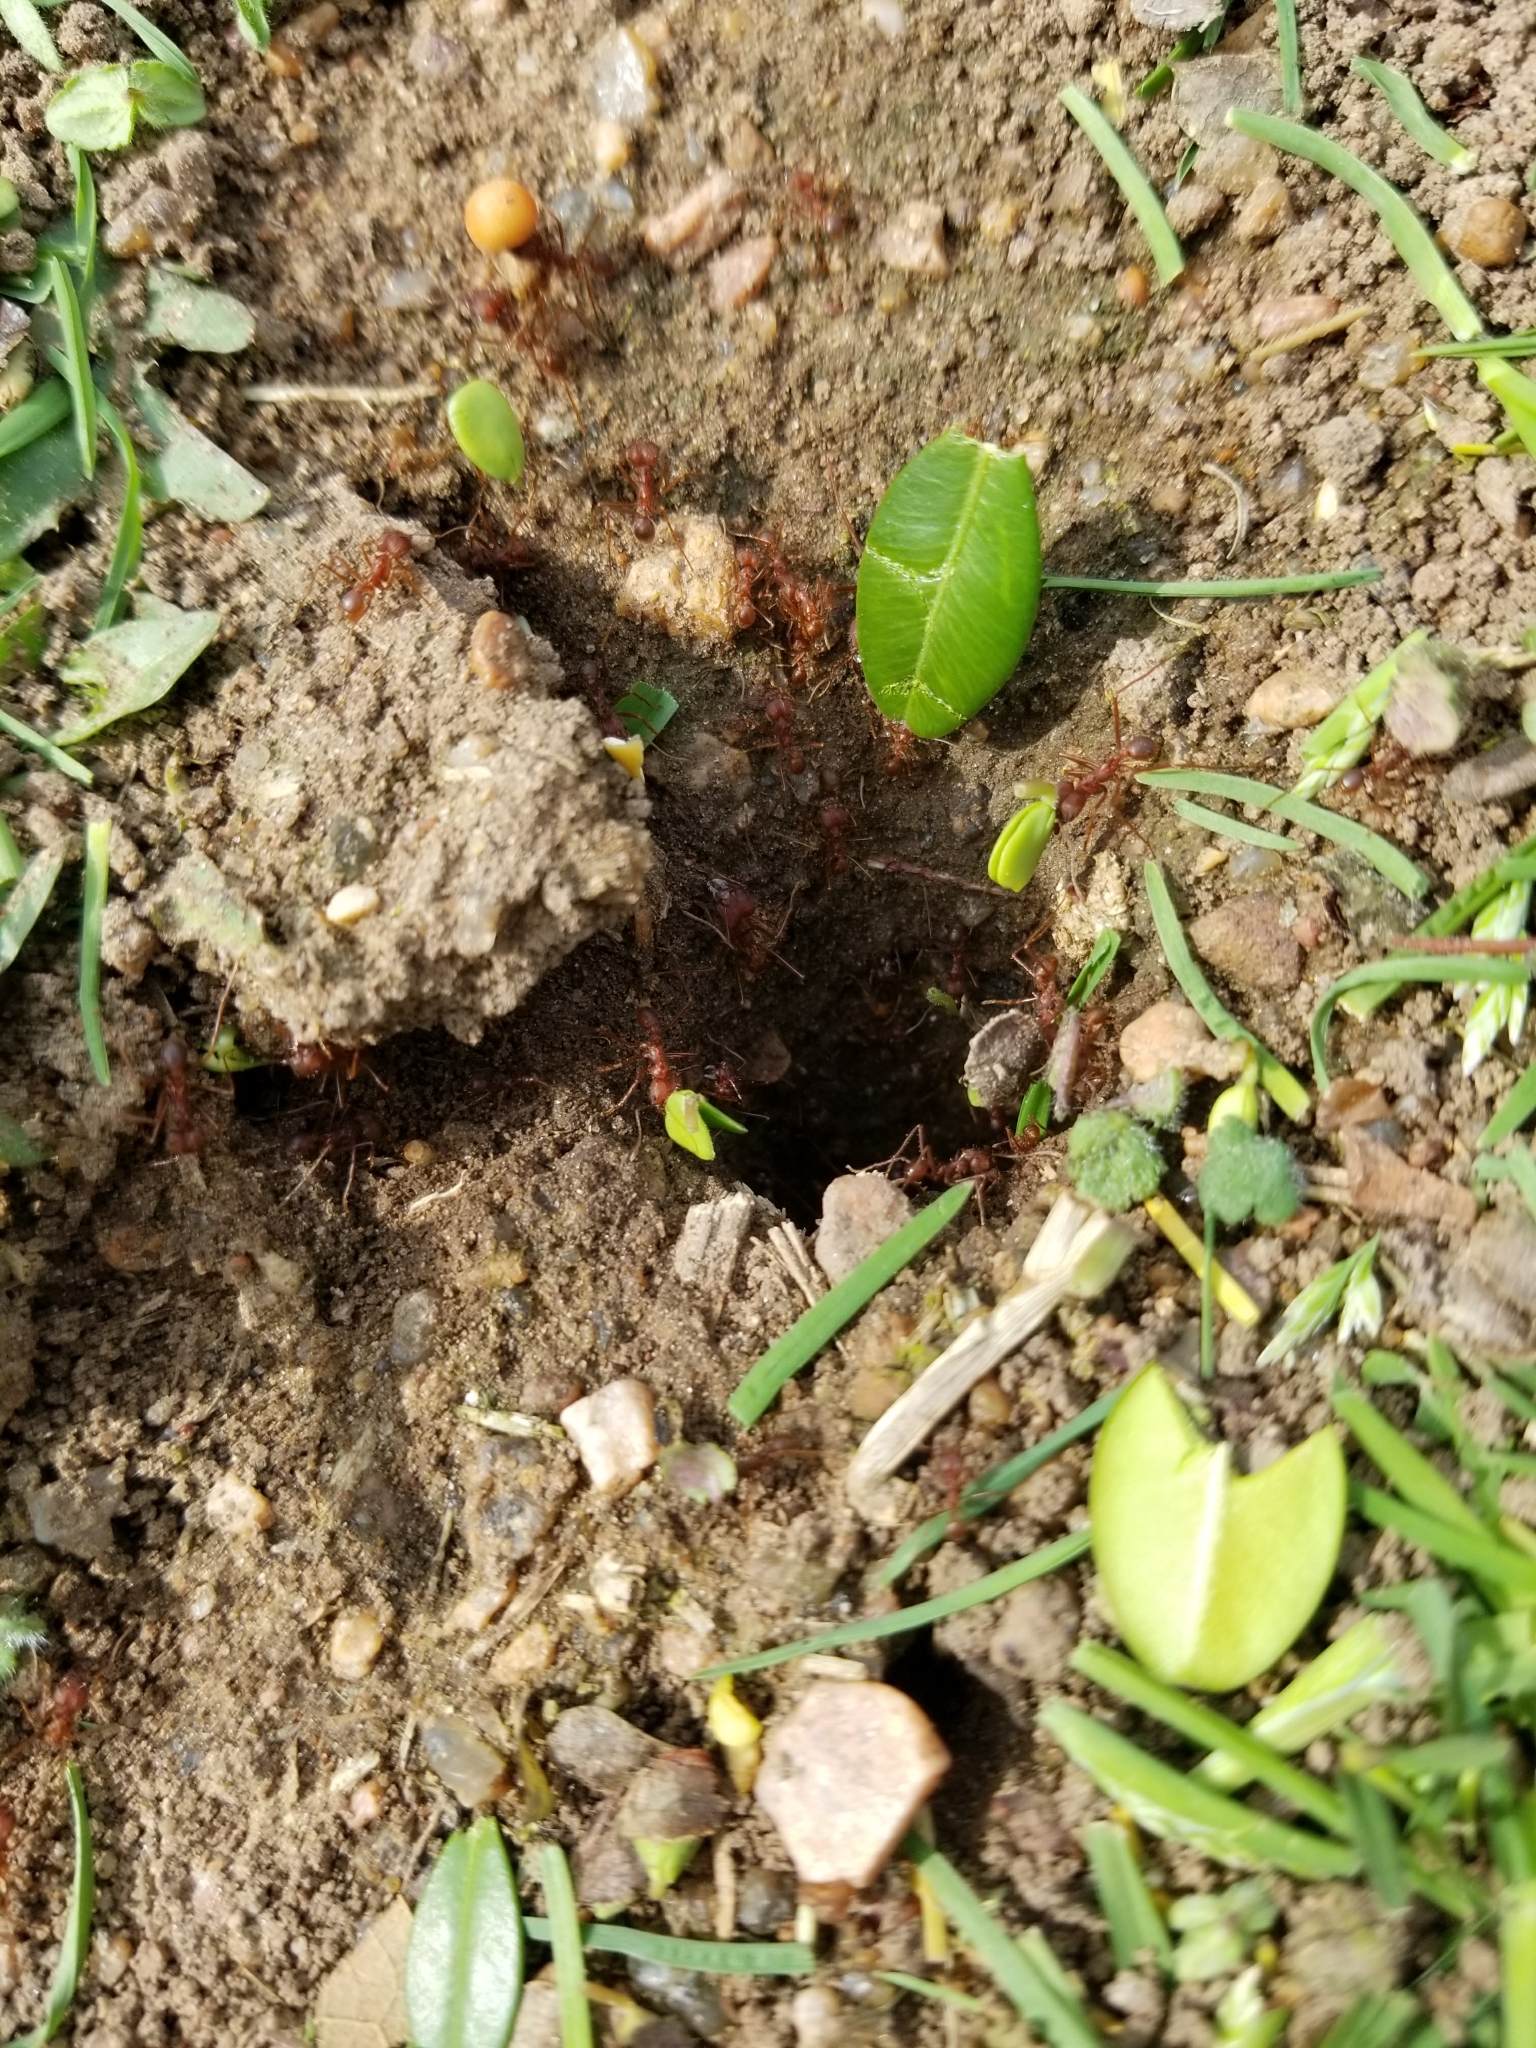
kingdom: Animalia
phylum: Arthropoda
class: Insecta
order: Hymenoptera
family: Formicidae
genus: Atta
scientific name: Atta texana
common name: Texas leafcutting ant
